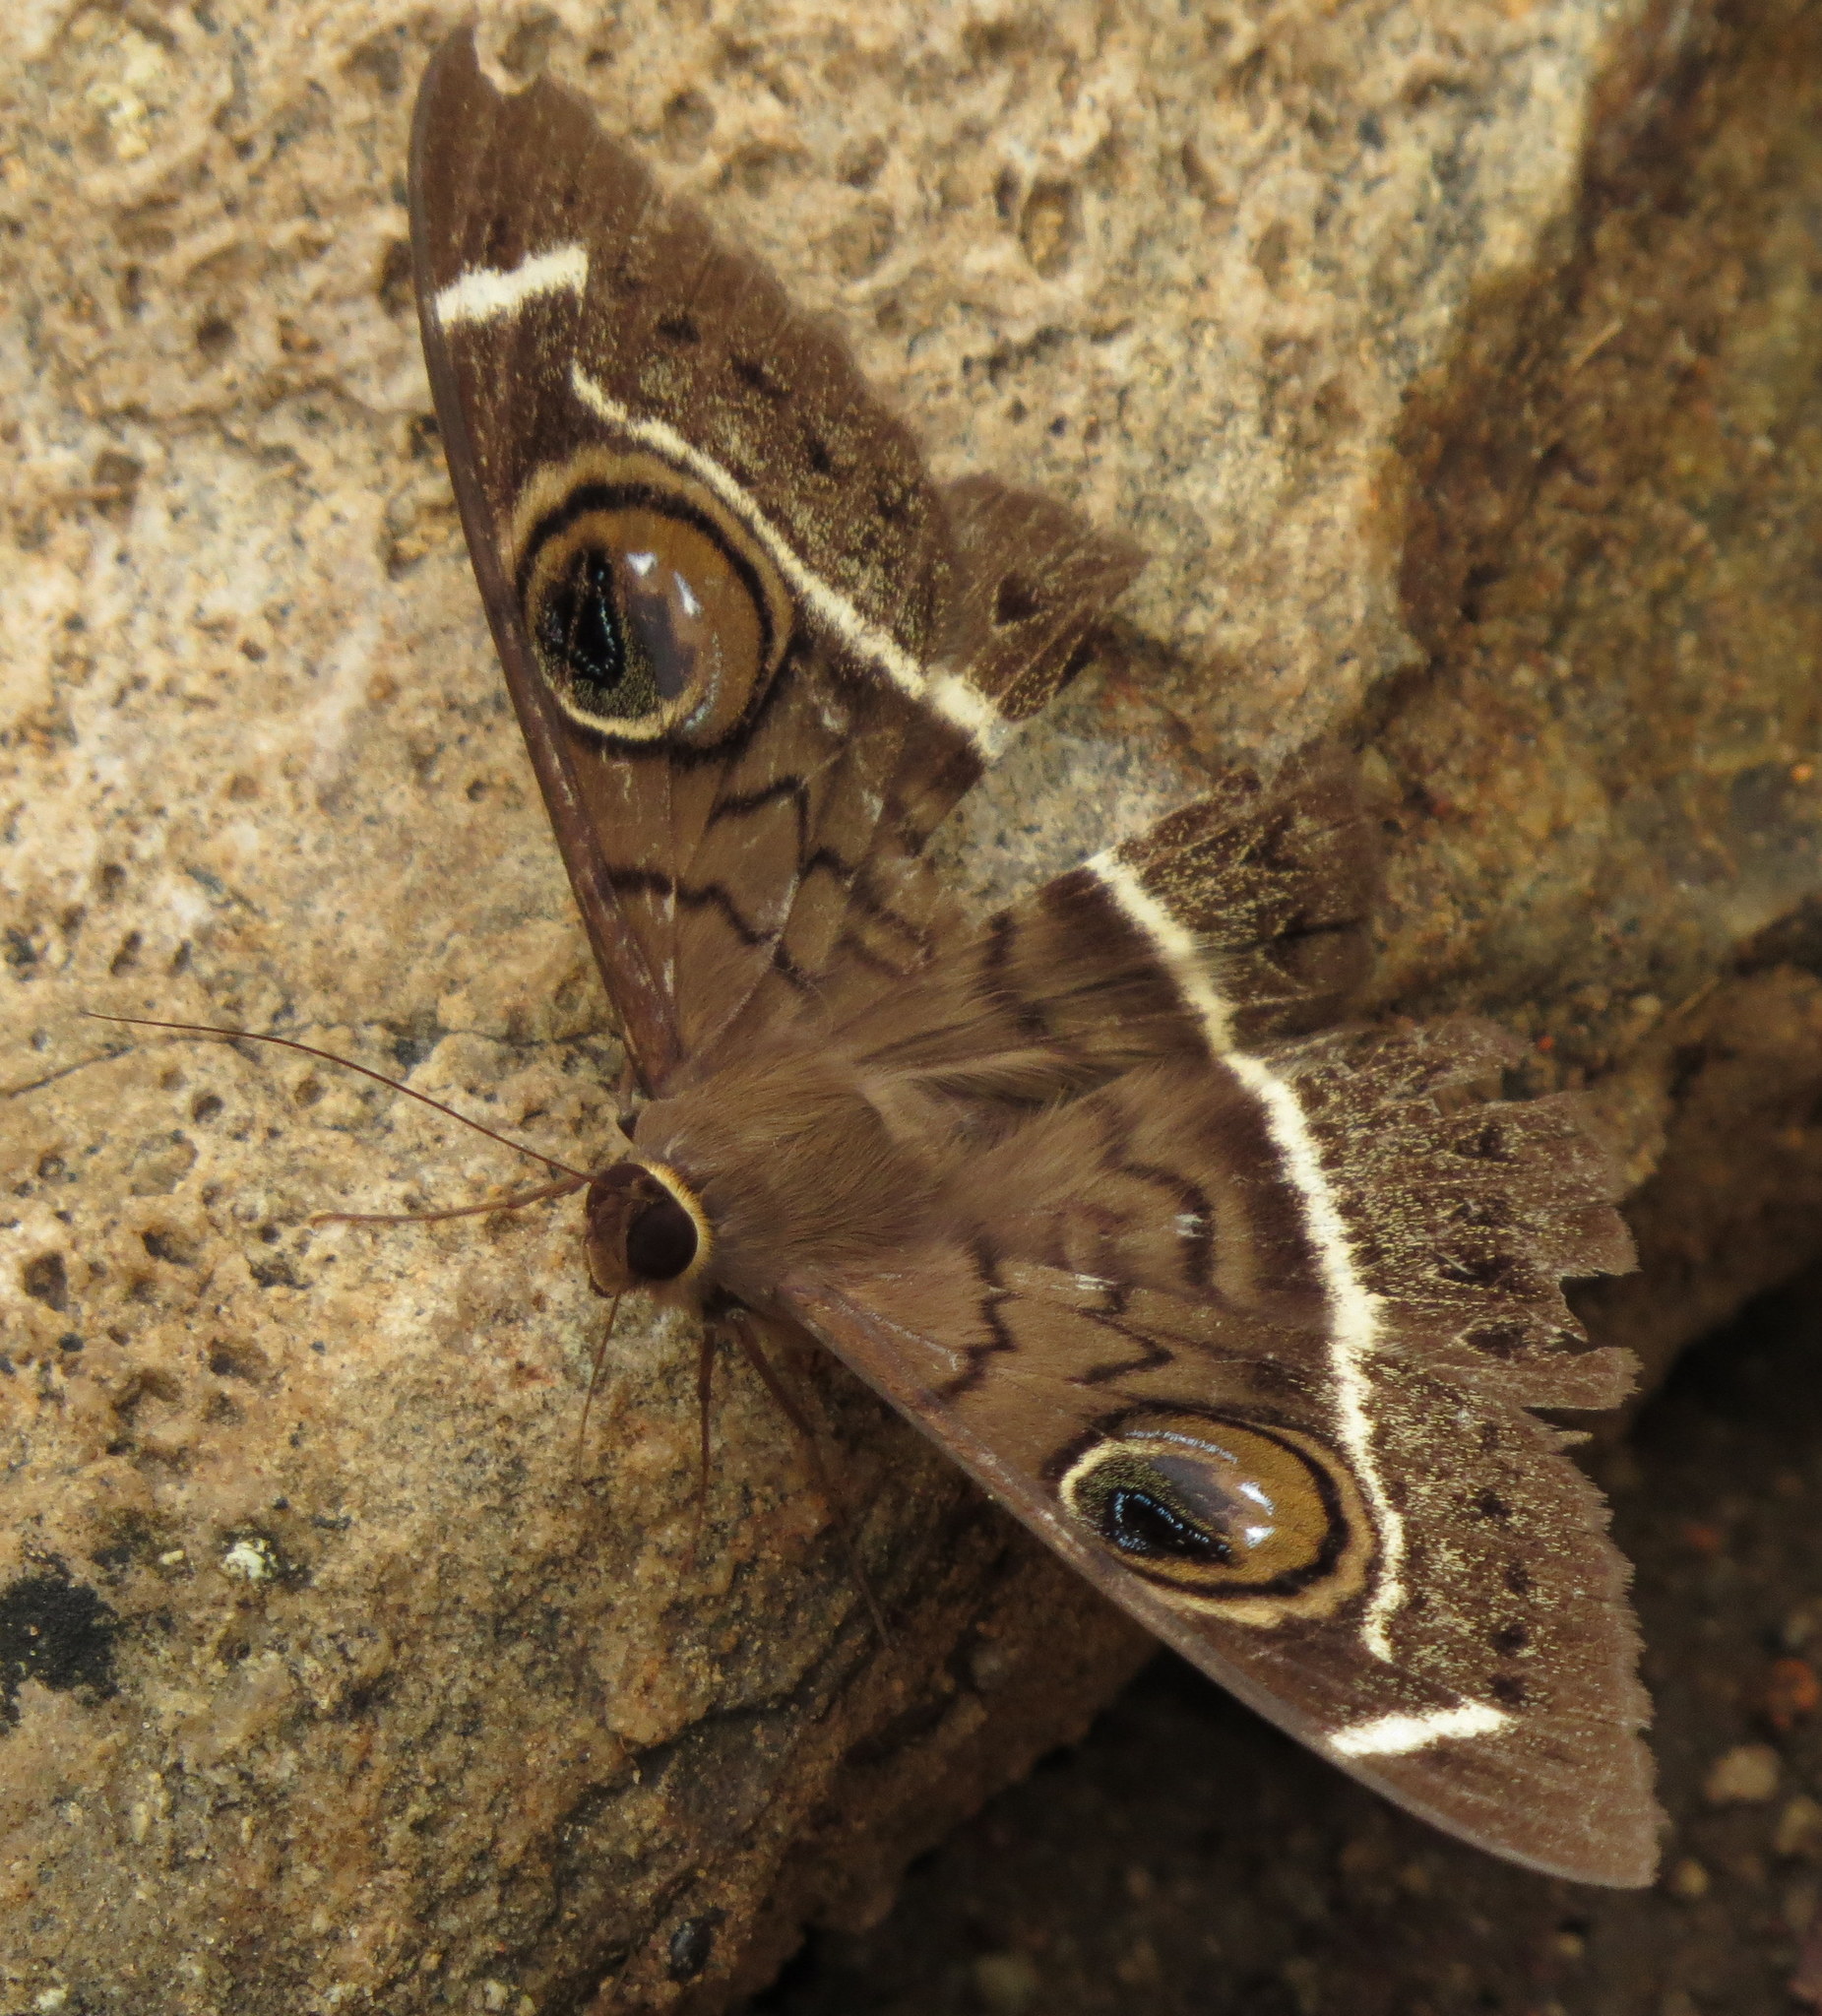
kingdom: Animalia
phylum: Arthropoda
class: Insecta
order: Lepidoptera
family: Erebidae
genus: Cyligramma
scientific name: Cyligramma latona
